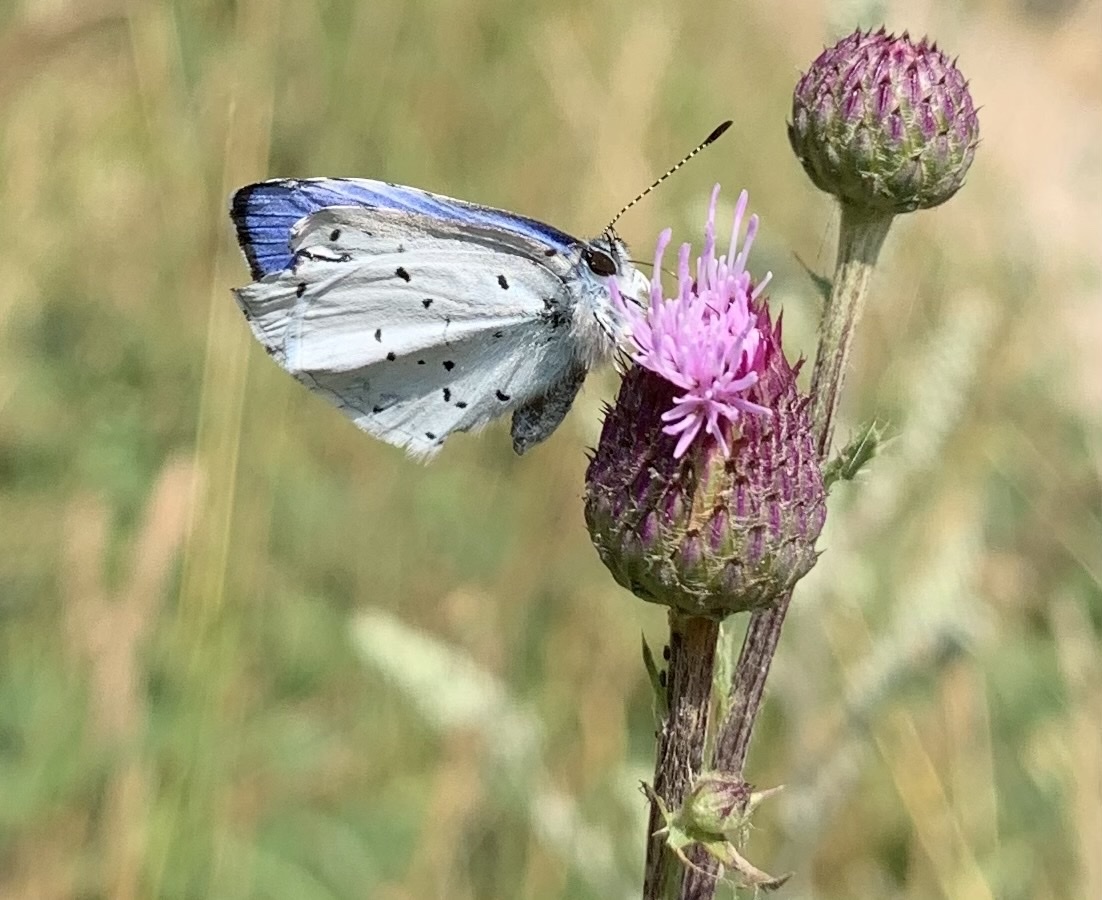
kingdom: Animalia
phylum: Arthropoda
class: Insecta
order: Lepidoptera
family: Lycaenidae
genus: Celastrina
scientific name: Celastrina argiolus
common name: Holly blue
